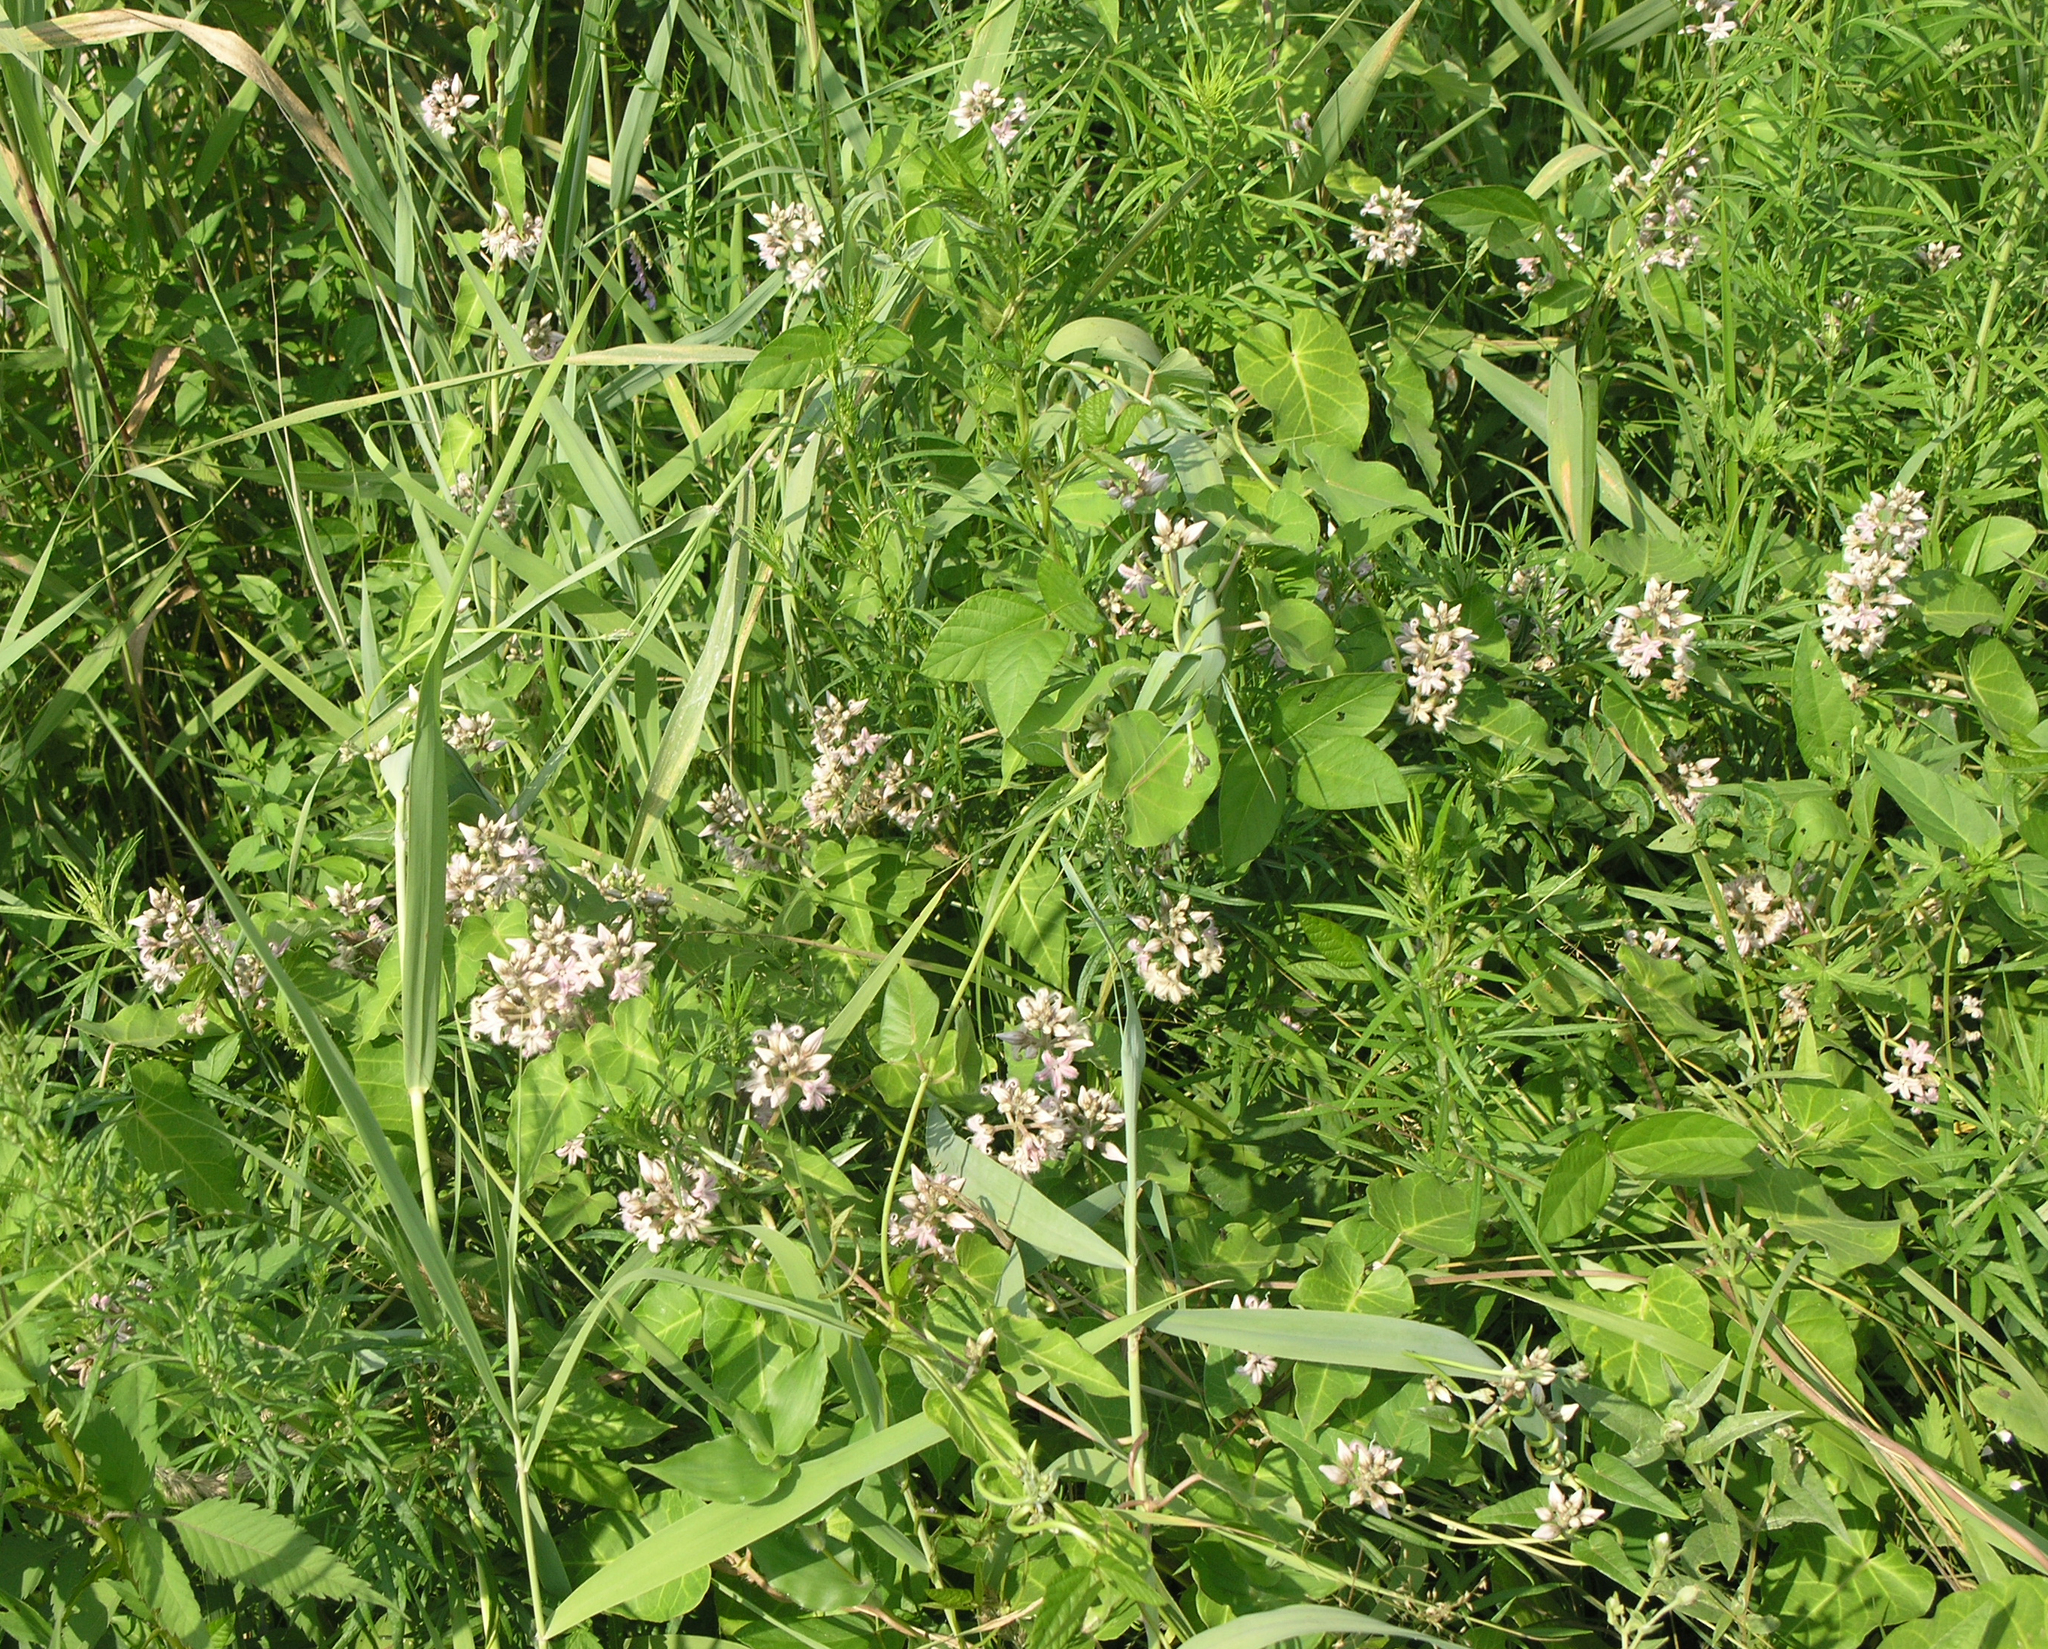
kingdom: Plantae
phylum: Tracheophyta
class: Magnoliopsida
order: Gentianales
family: Apocynaceae
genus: Cynanchum
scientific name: Cynanchum rostellatum
